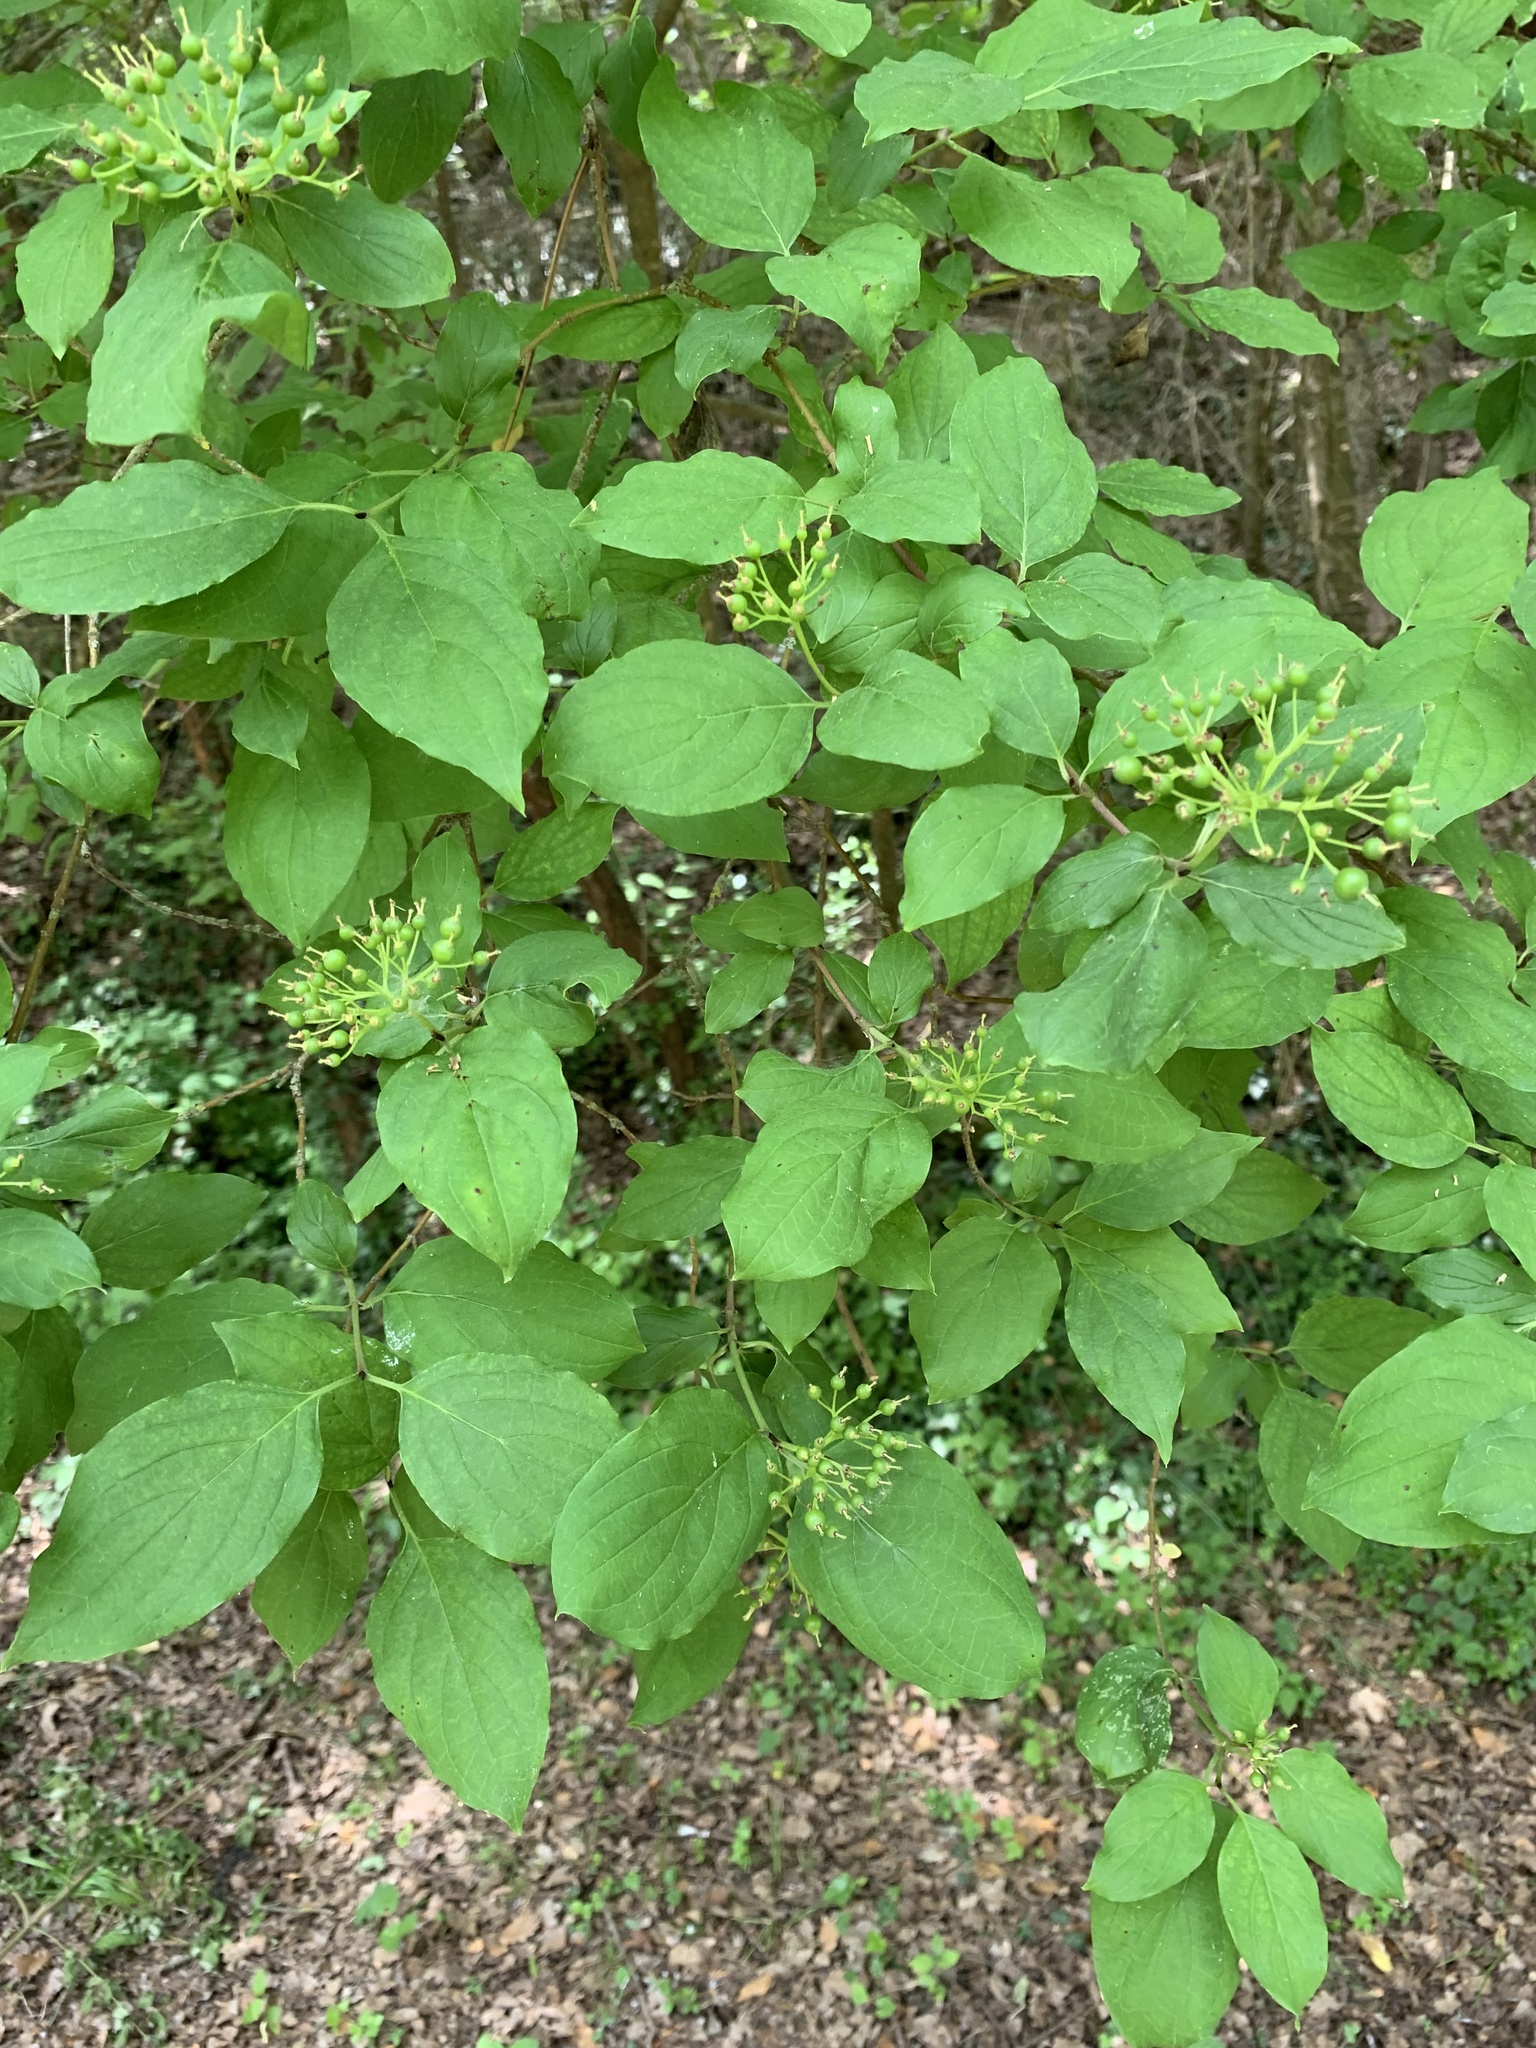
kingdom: Plantae
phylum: Tracheophyta
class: Magnoliopsida
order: Cornales
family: Cornaceae
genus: Cornus
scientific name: Cornus sanguinea
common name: Dogwood
